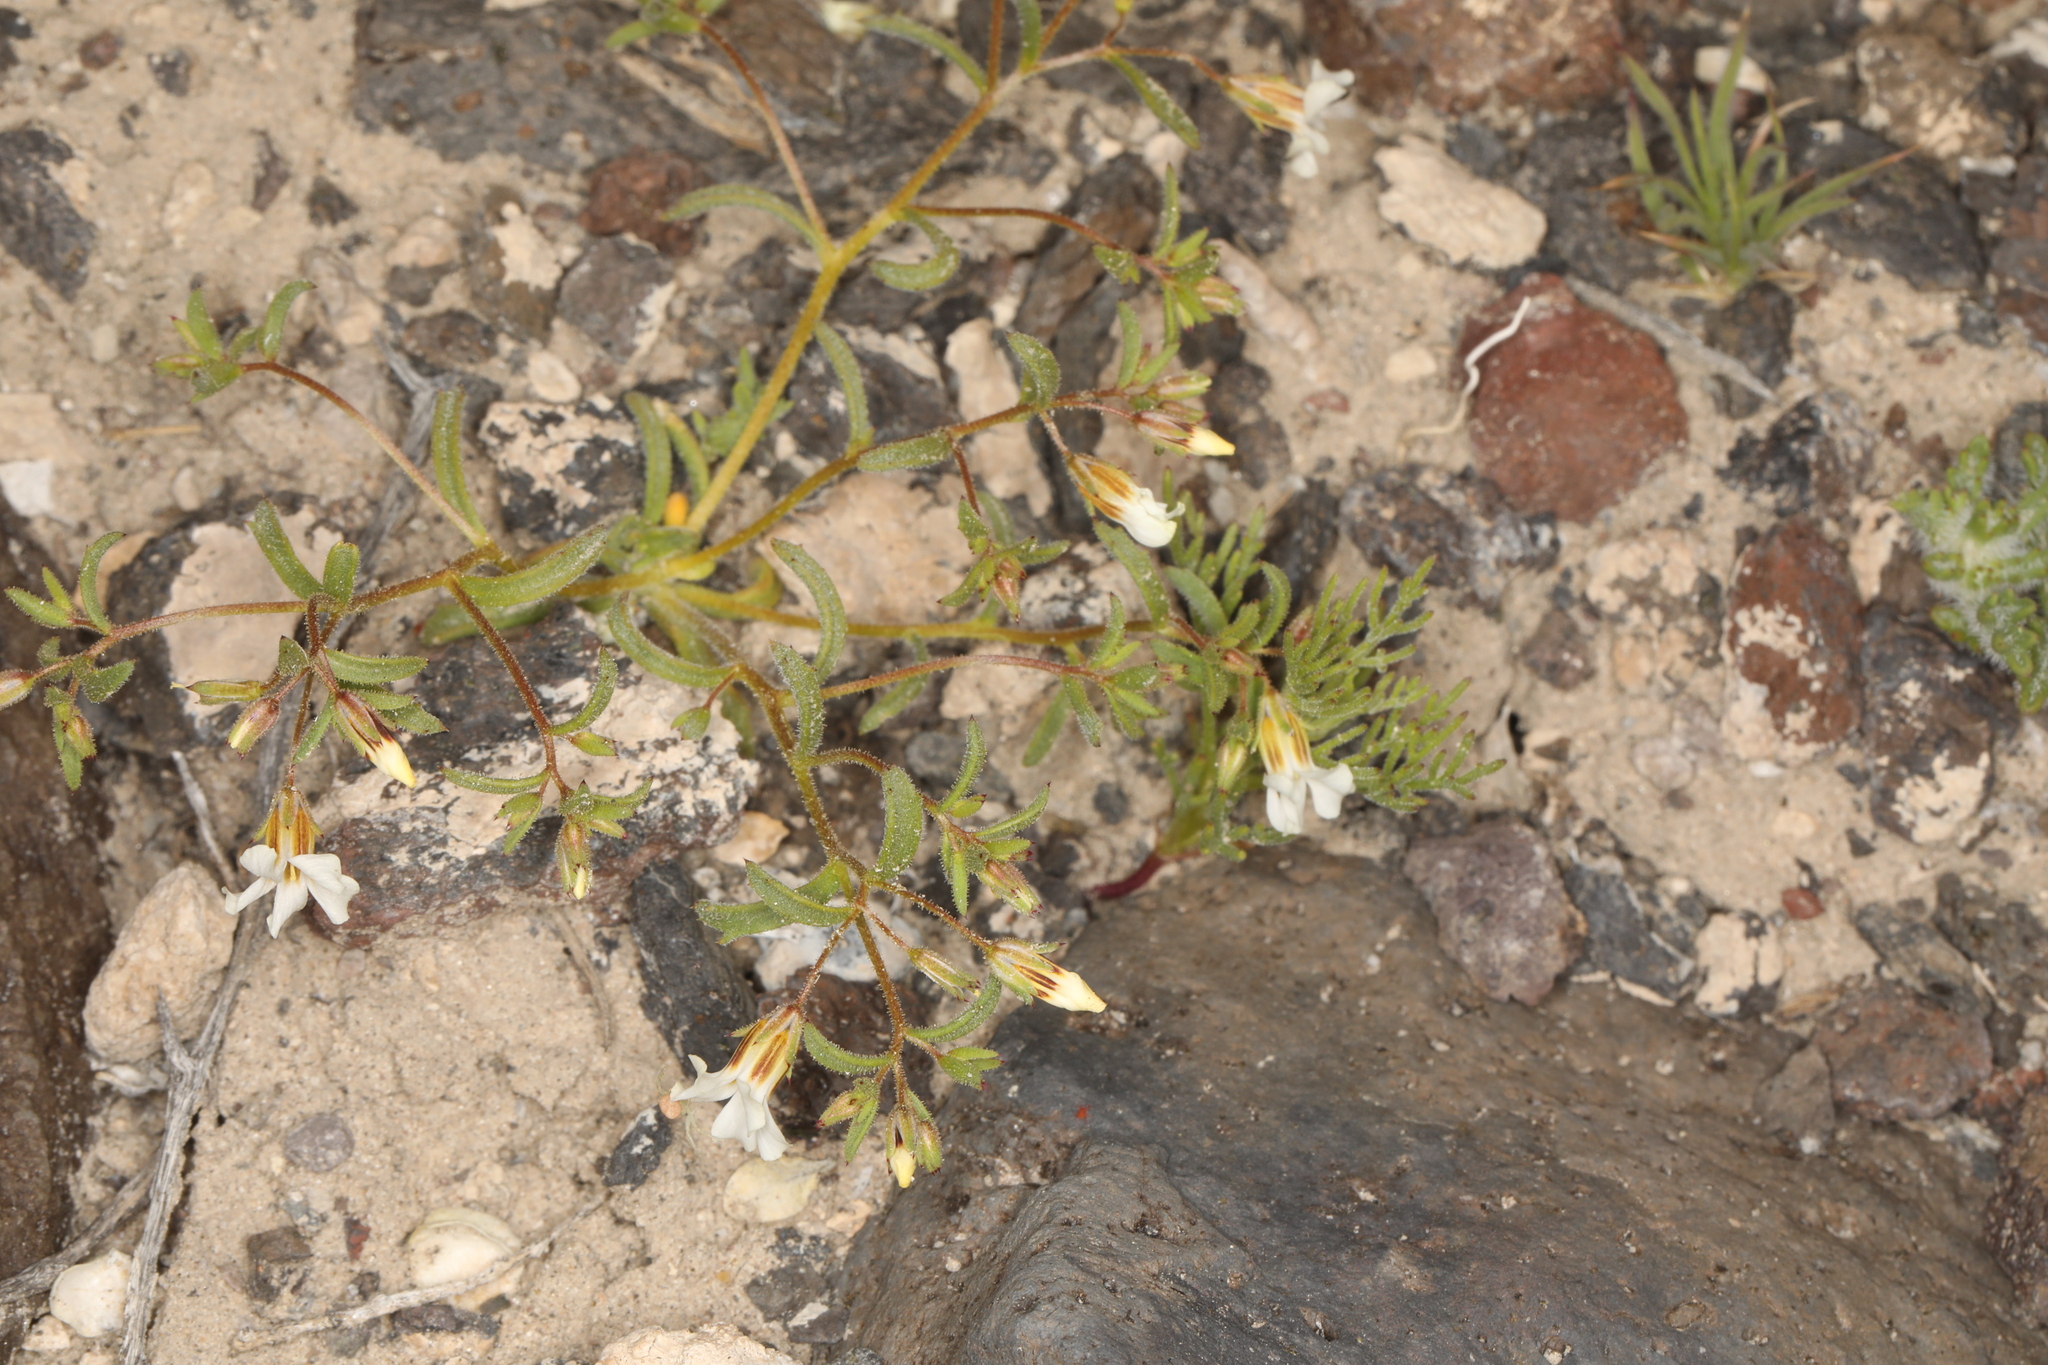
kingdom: Plantae
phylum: Tracheophyta
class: Magnoliopsida
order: Ericales
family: Polemoniaceae
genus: Linanthus
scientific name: Linanthus campanulatus
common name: Bellshape gilia
